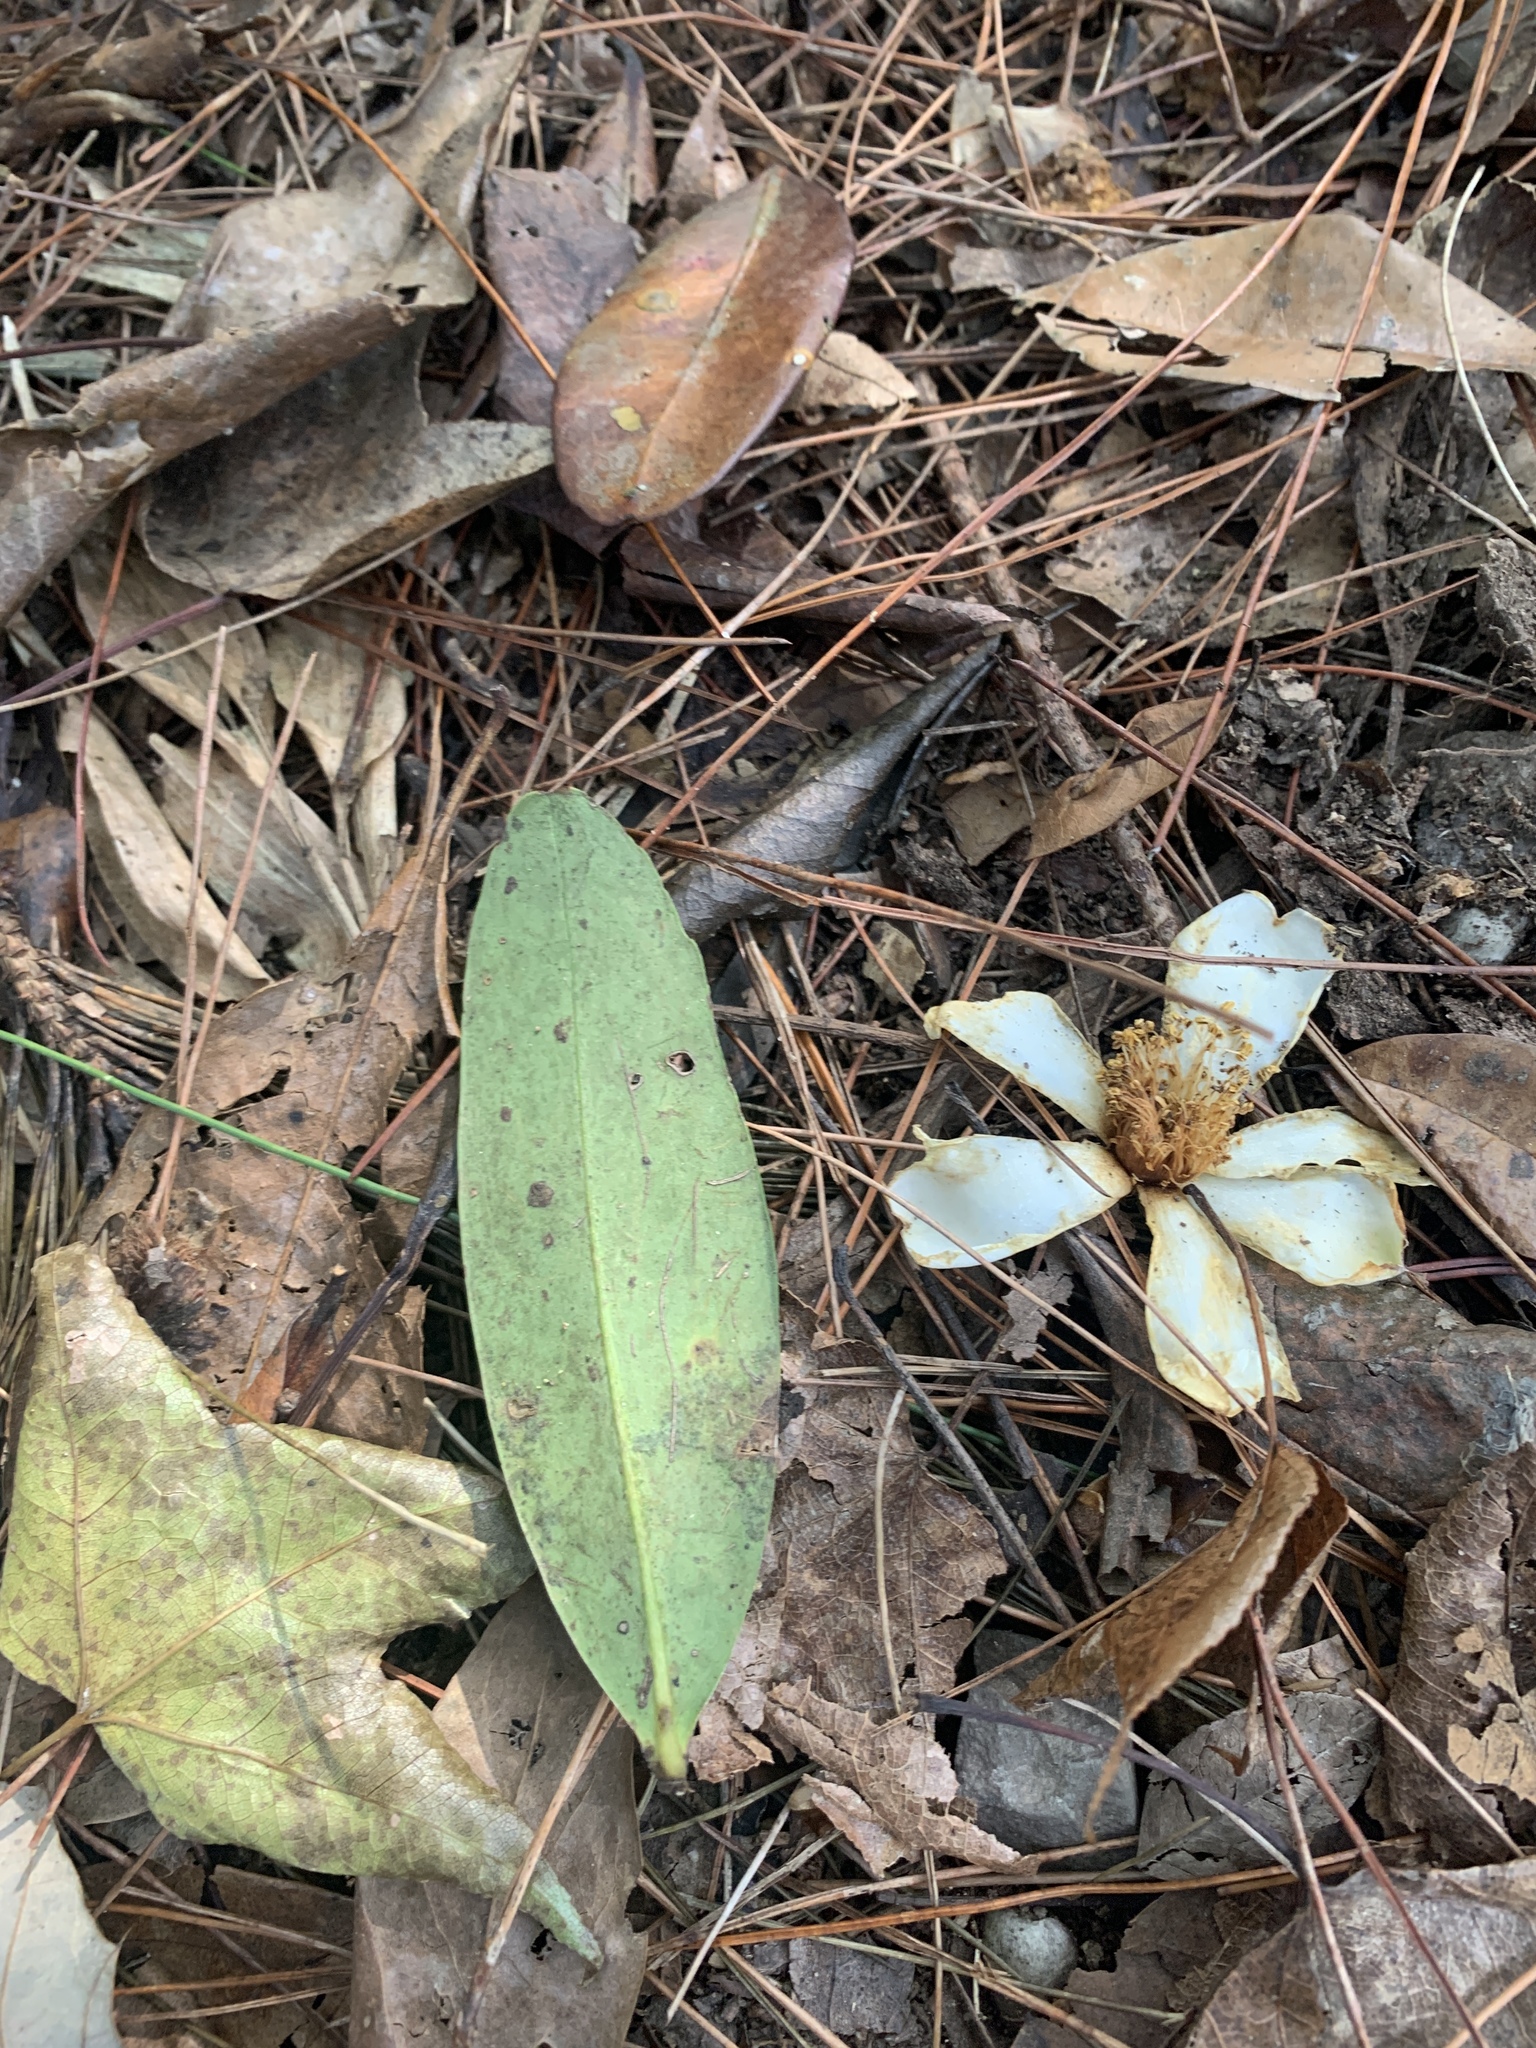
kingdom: Plantae
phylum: Tracheophyta
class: Magnoliopsida
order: Ericales
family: Theaceae
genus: Polyspora
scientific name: Polyspora axillaris
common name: Fried egg tree
